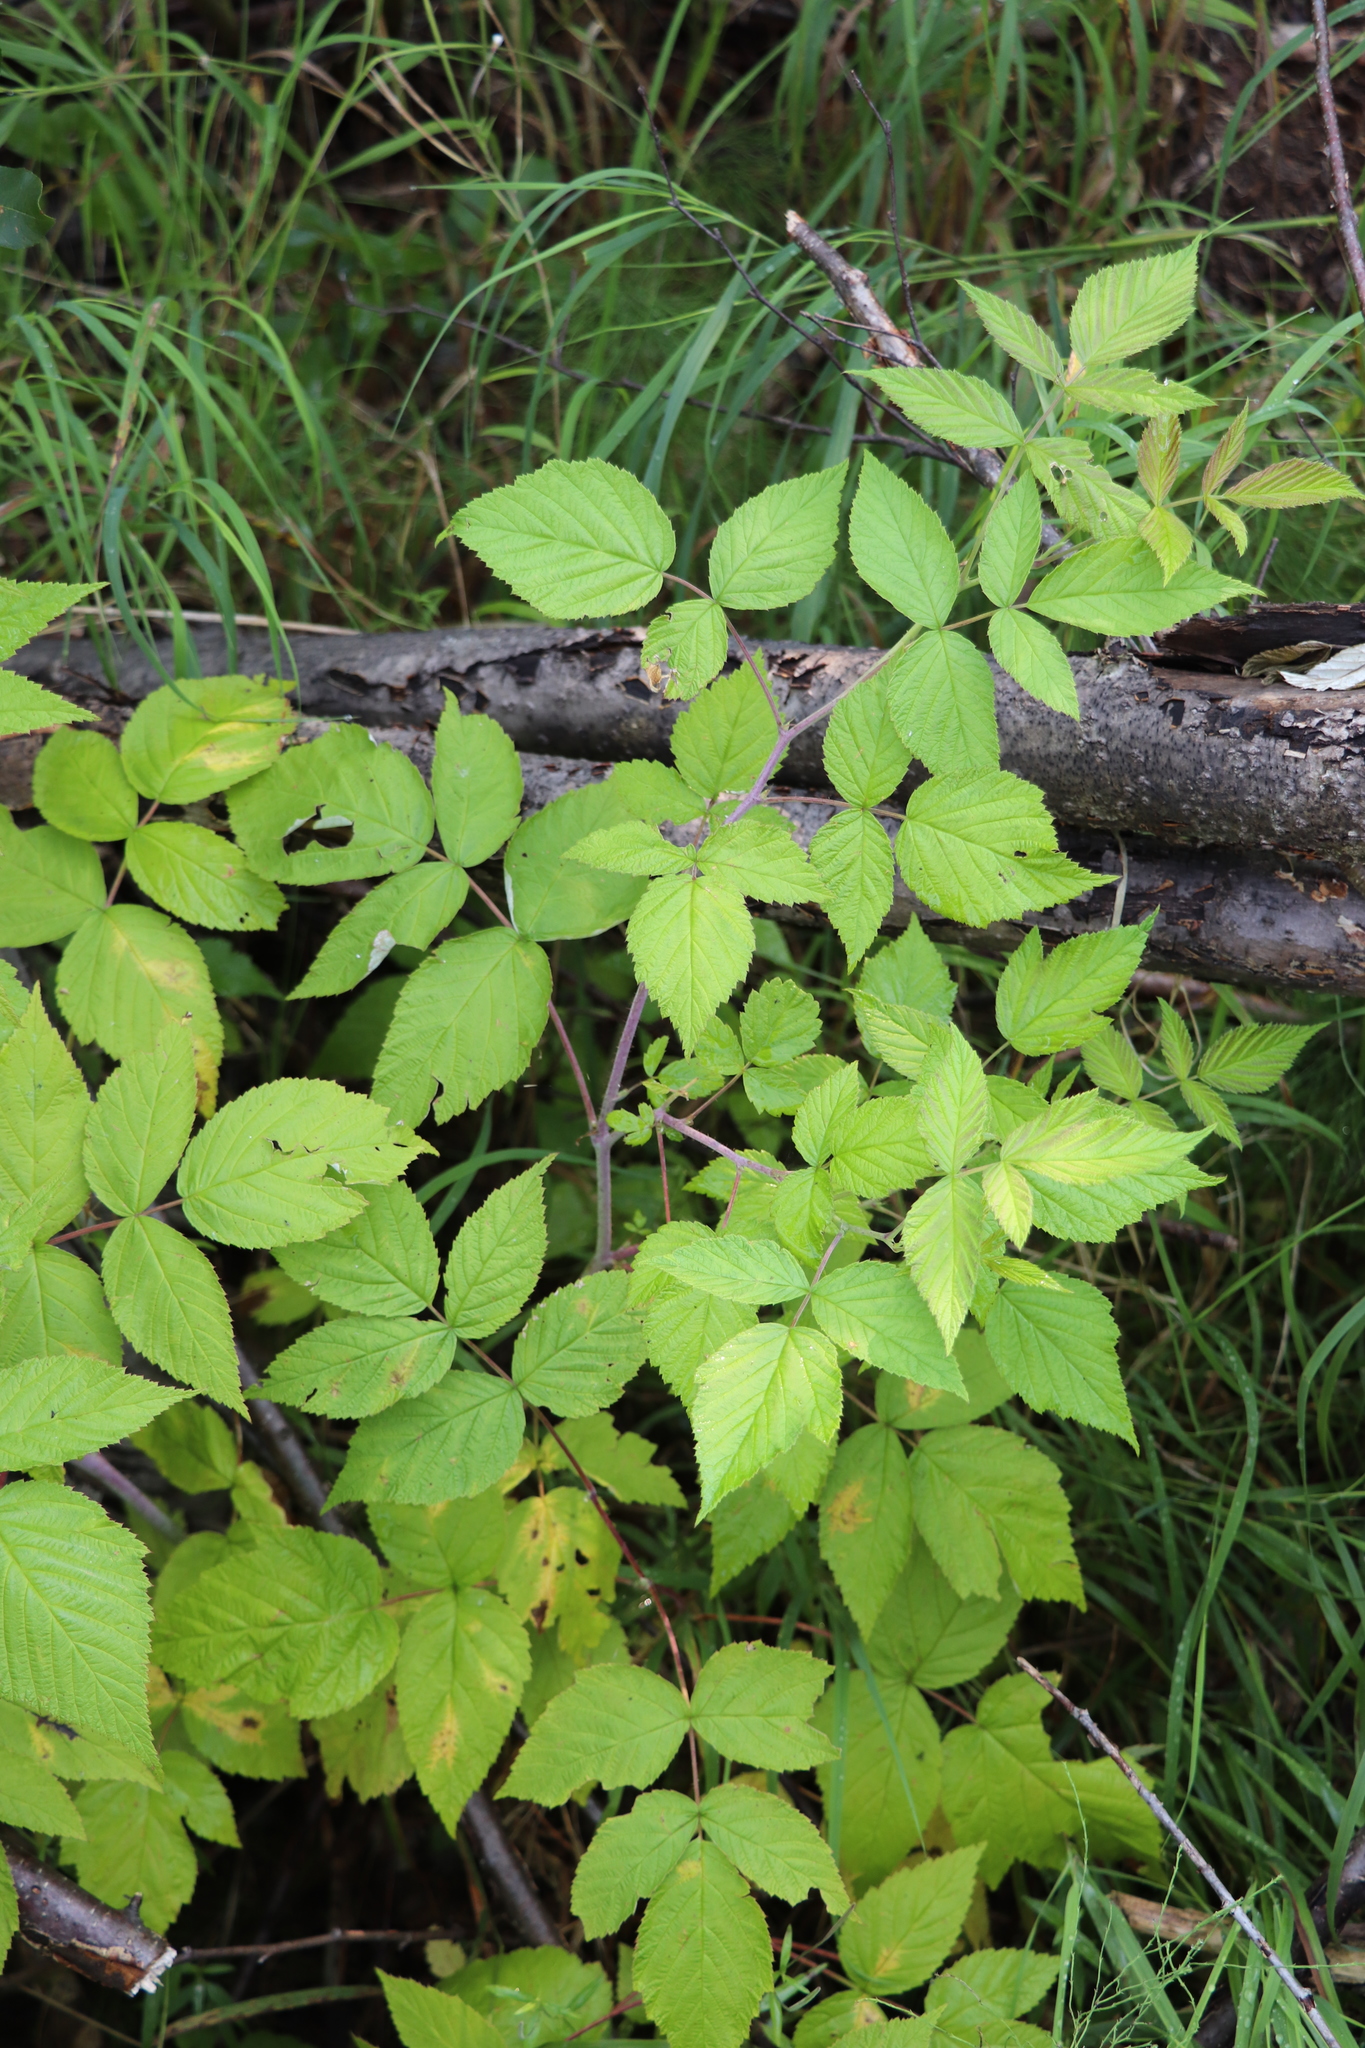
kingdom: Plantae
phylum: Tracheophyta
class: Magnoliopsida
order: Rosales
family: Rosaceae
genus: Rubus
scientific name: Rubus idaeus
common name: Raspberry
